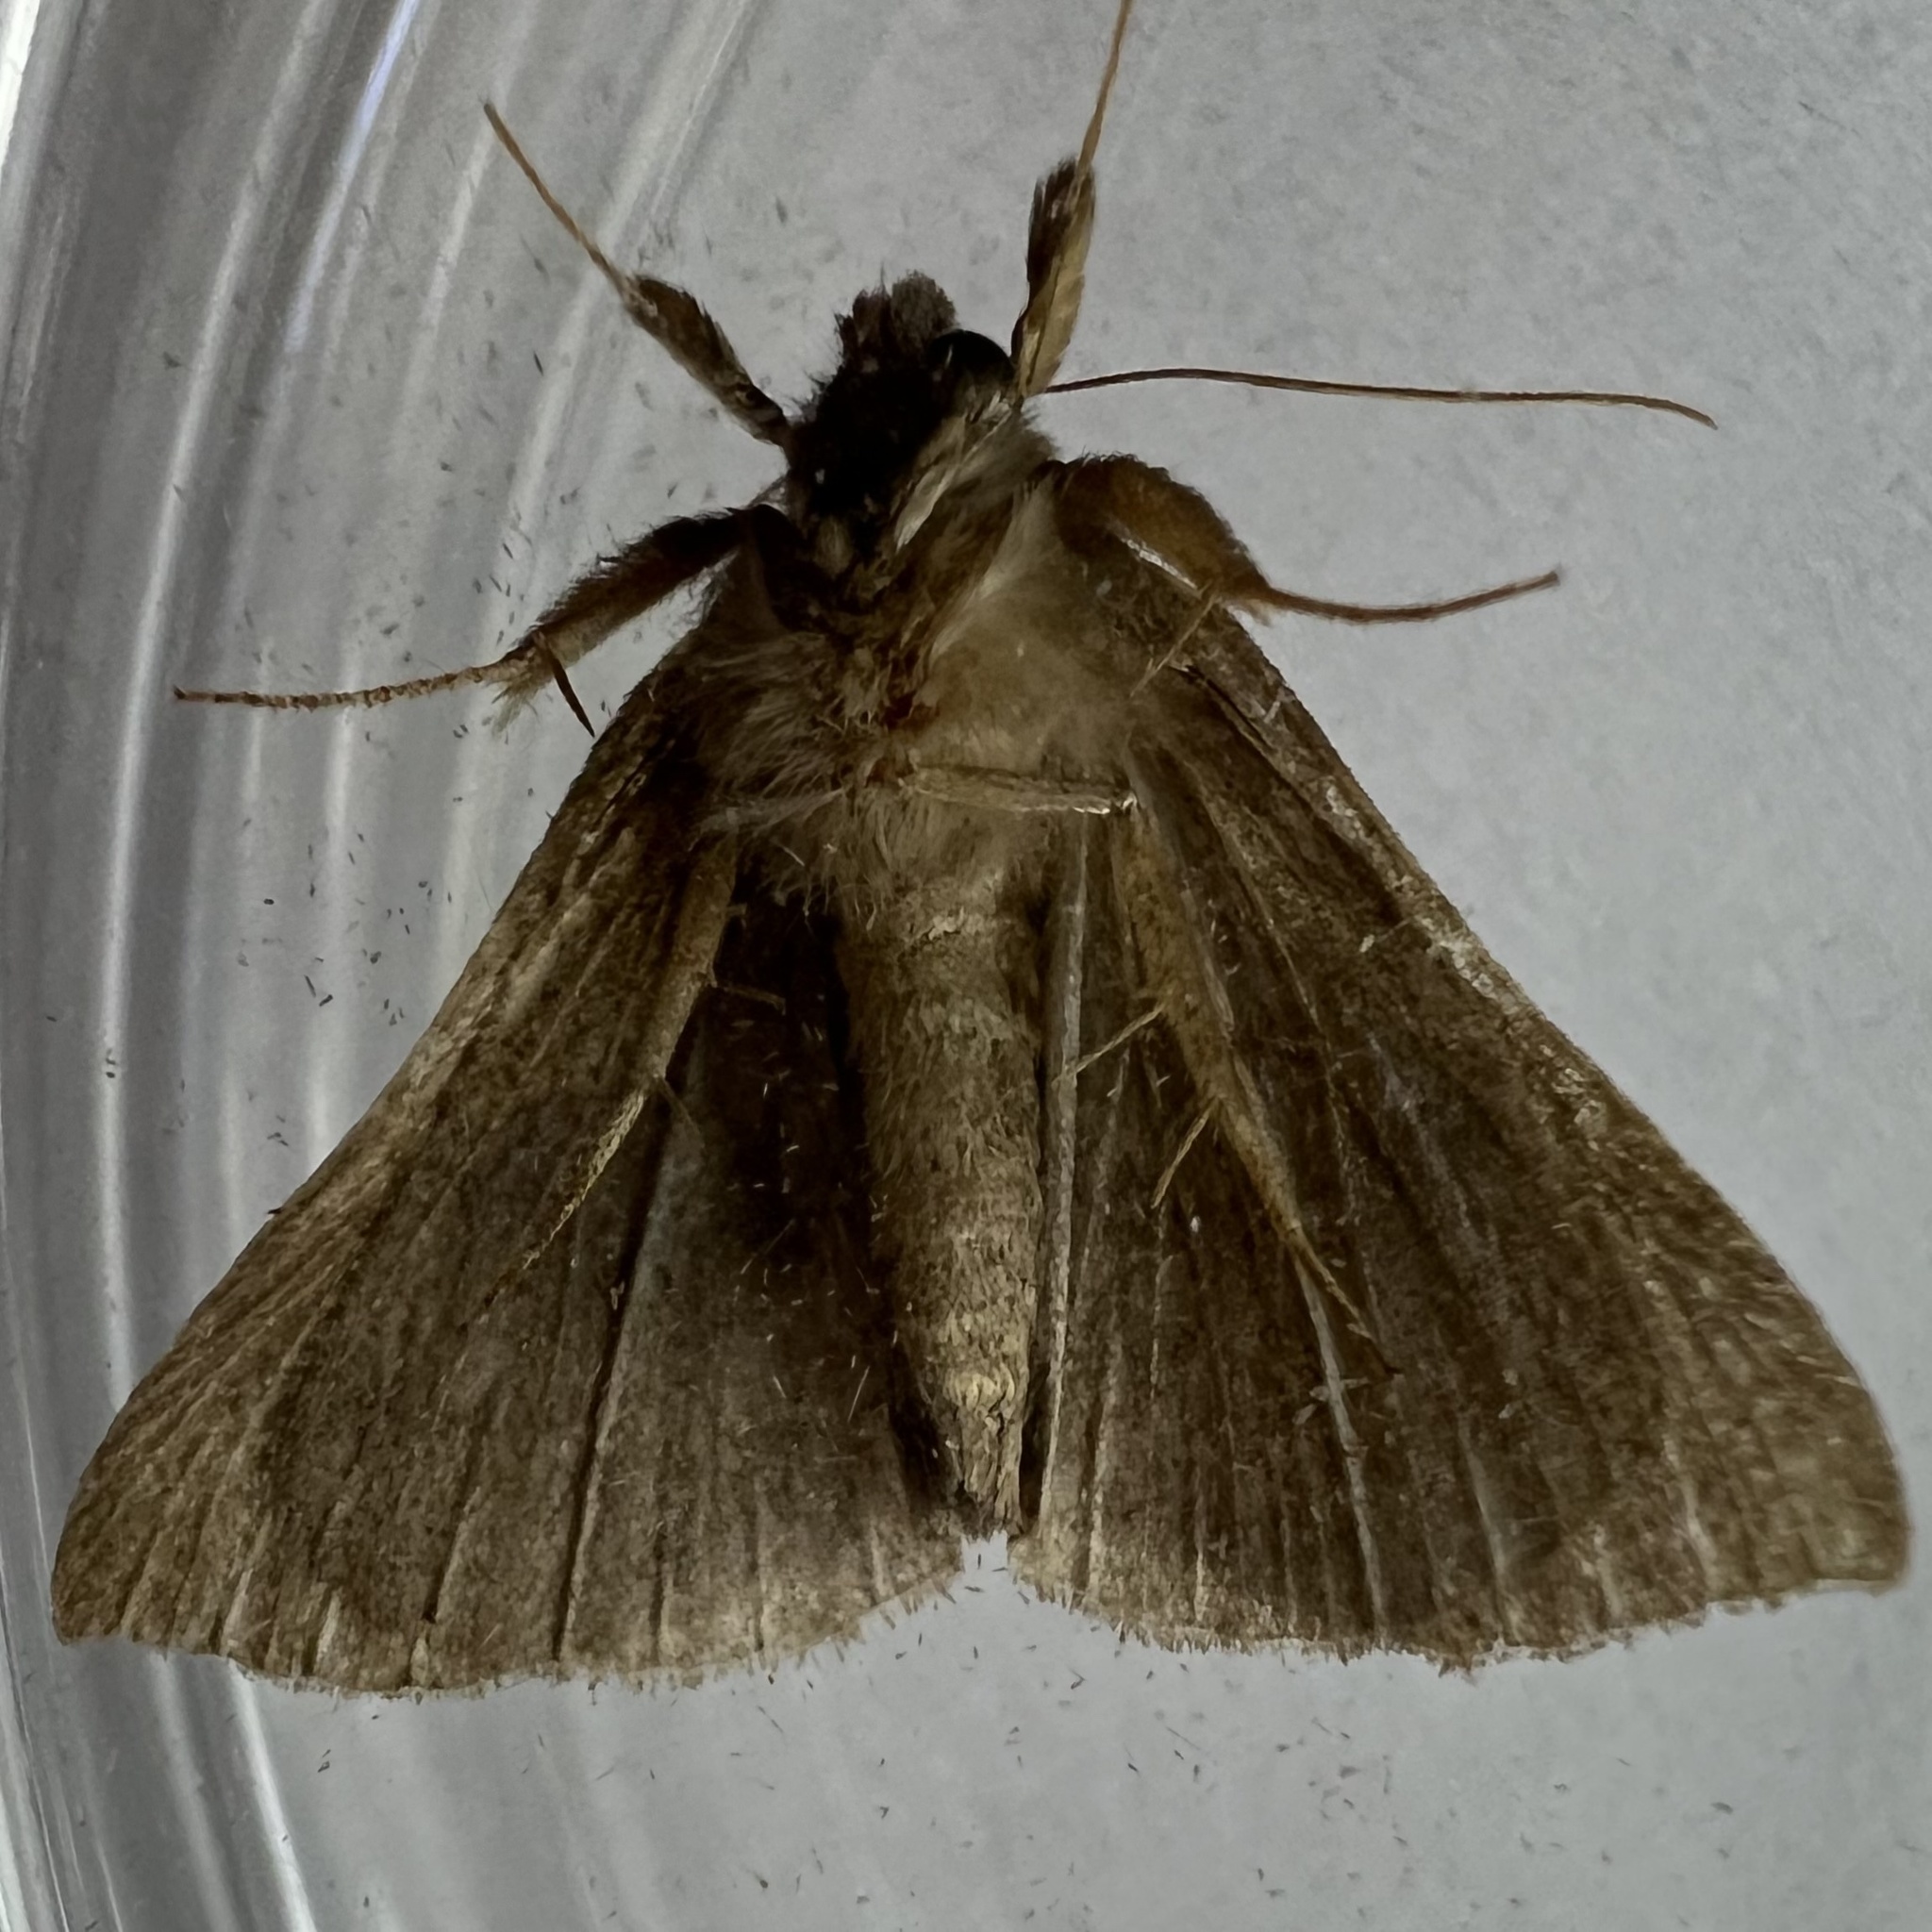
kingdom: Animalia
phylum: Arthropoda
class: Insecta
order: Lepidoptera
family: Erebidae
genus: Hypena
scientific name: Hypena madefactalis
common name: Gray-edged snout
